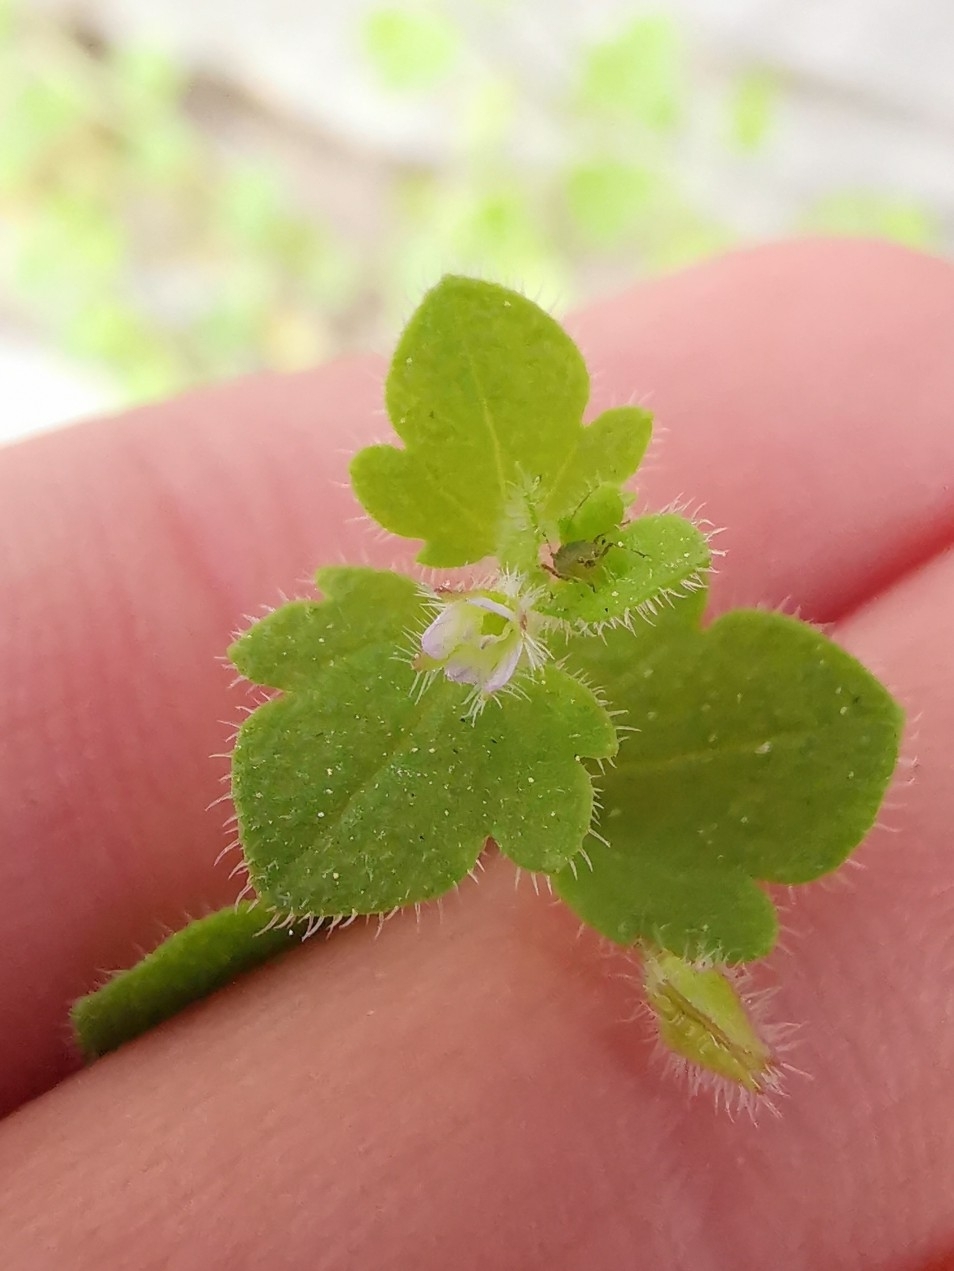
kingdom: Plantae
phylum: Tracheophyta
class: Magnoliopsida
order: Lamiales
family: Plantaginaceae
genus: Veronica
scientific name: Veronica sublobata
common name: False ivy-leaved speedwell
